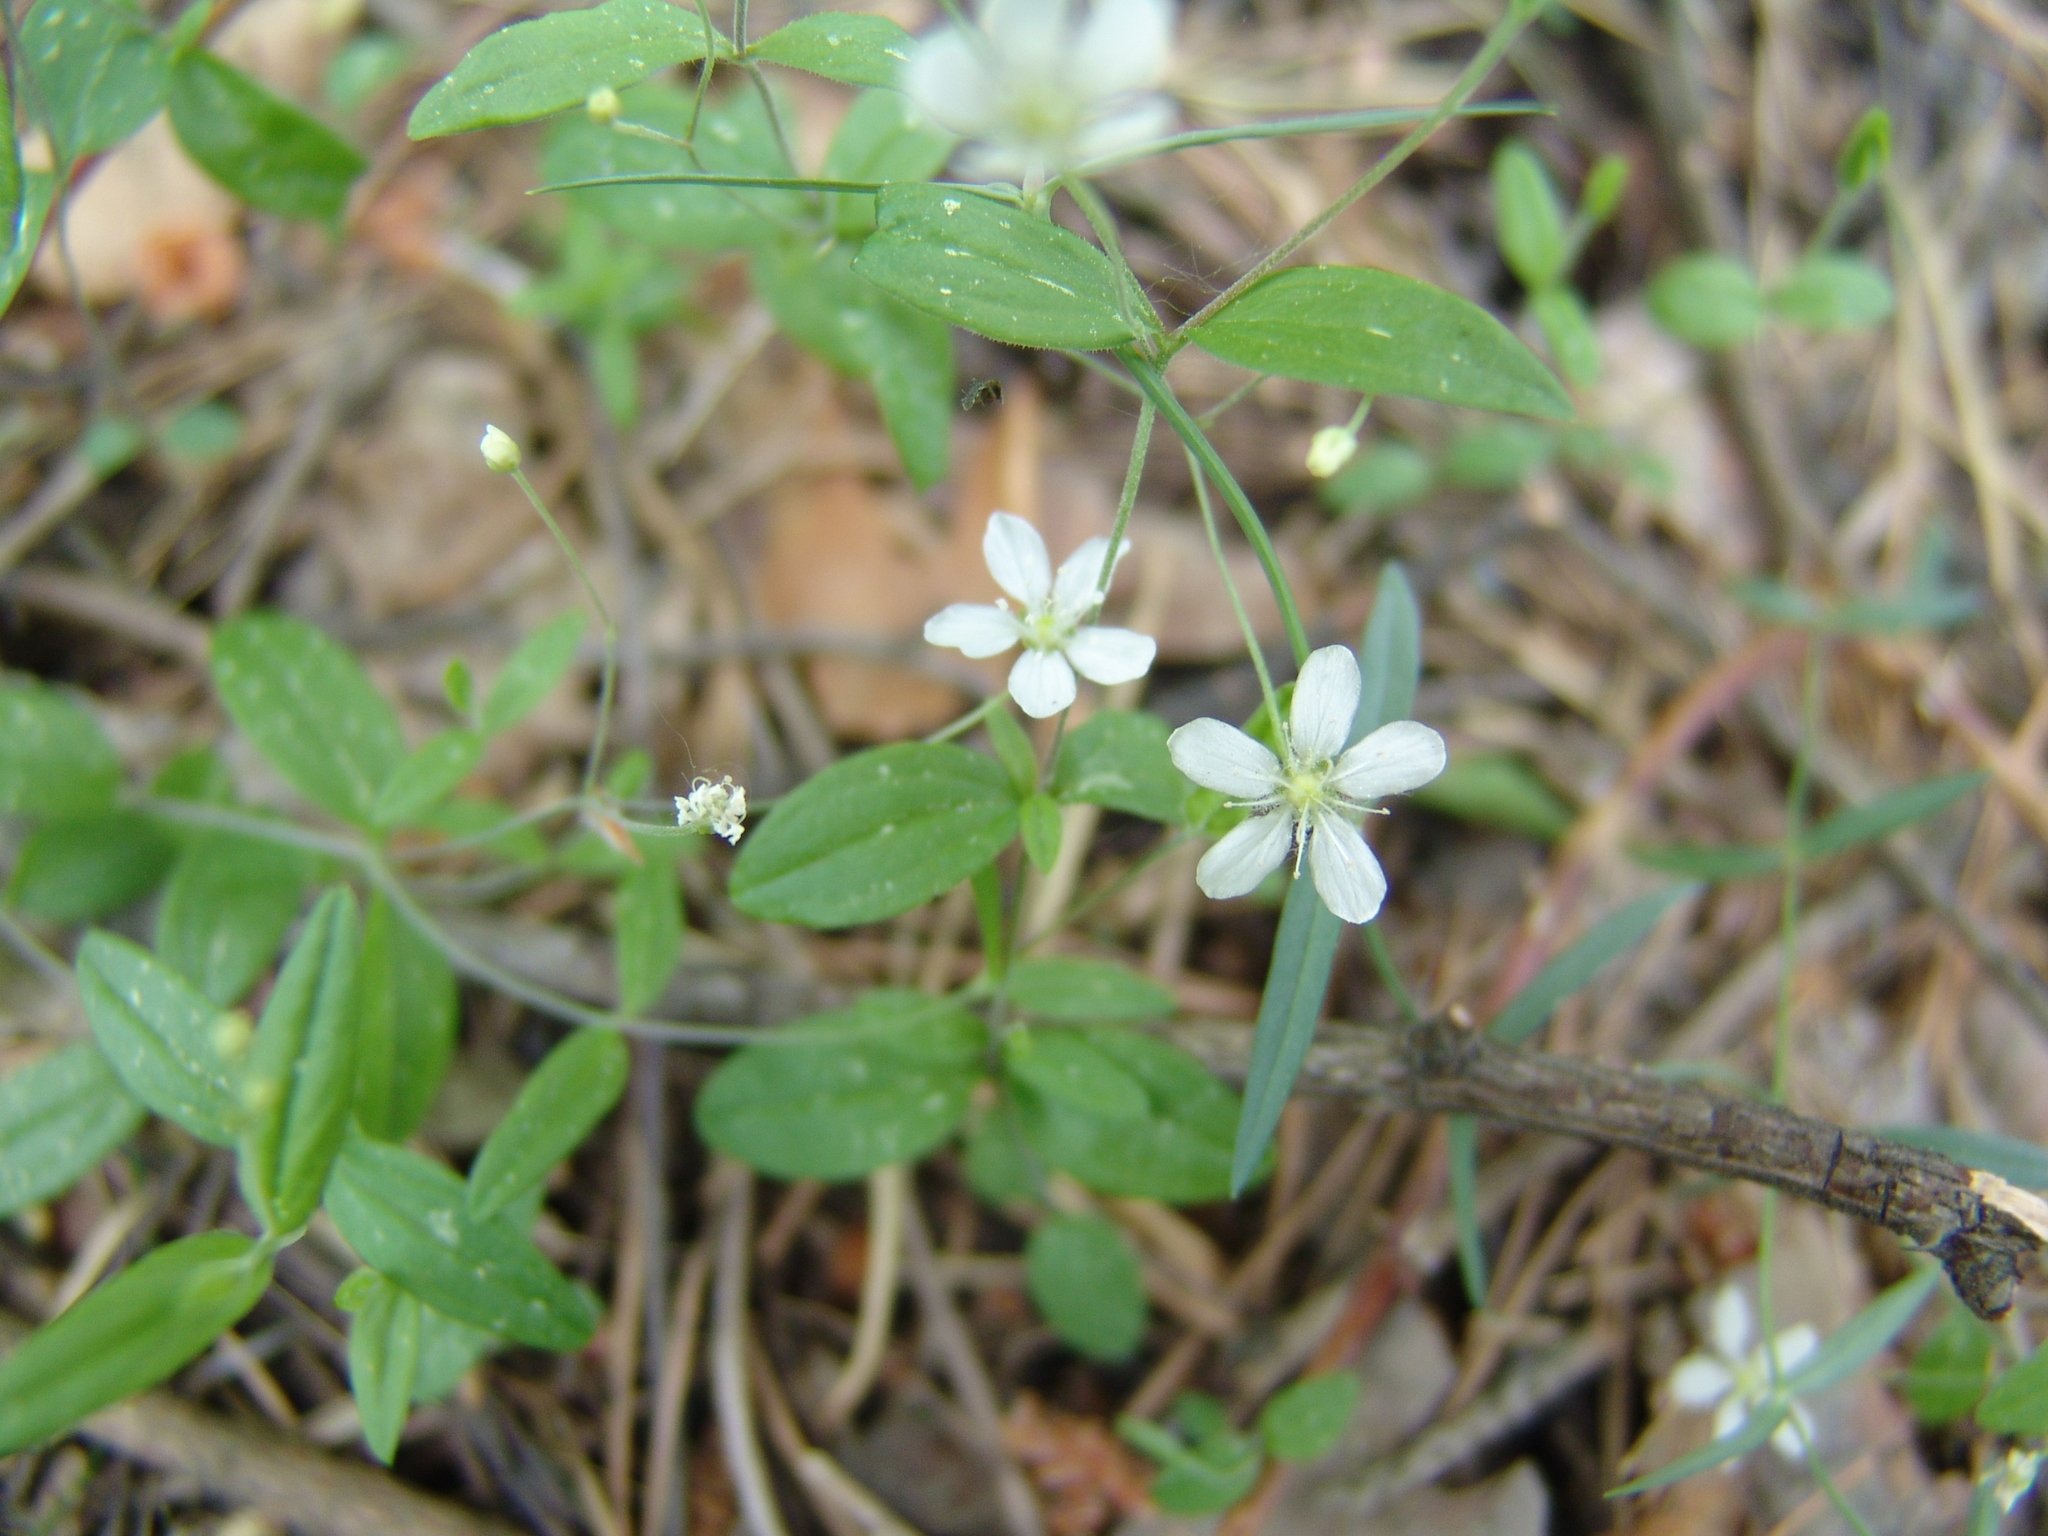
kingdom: Plantae
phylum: Tracheophyta
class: Magnoliopsida
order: Caryophyllales
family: Caryophyllaceae
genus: Moehringia
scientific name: Moehringia lateriflora
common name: Blunt-leaved sandwort
